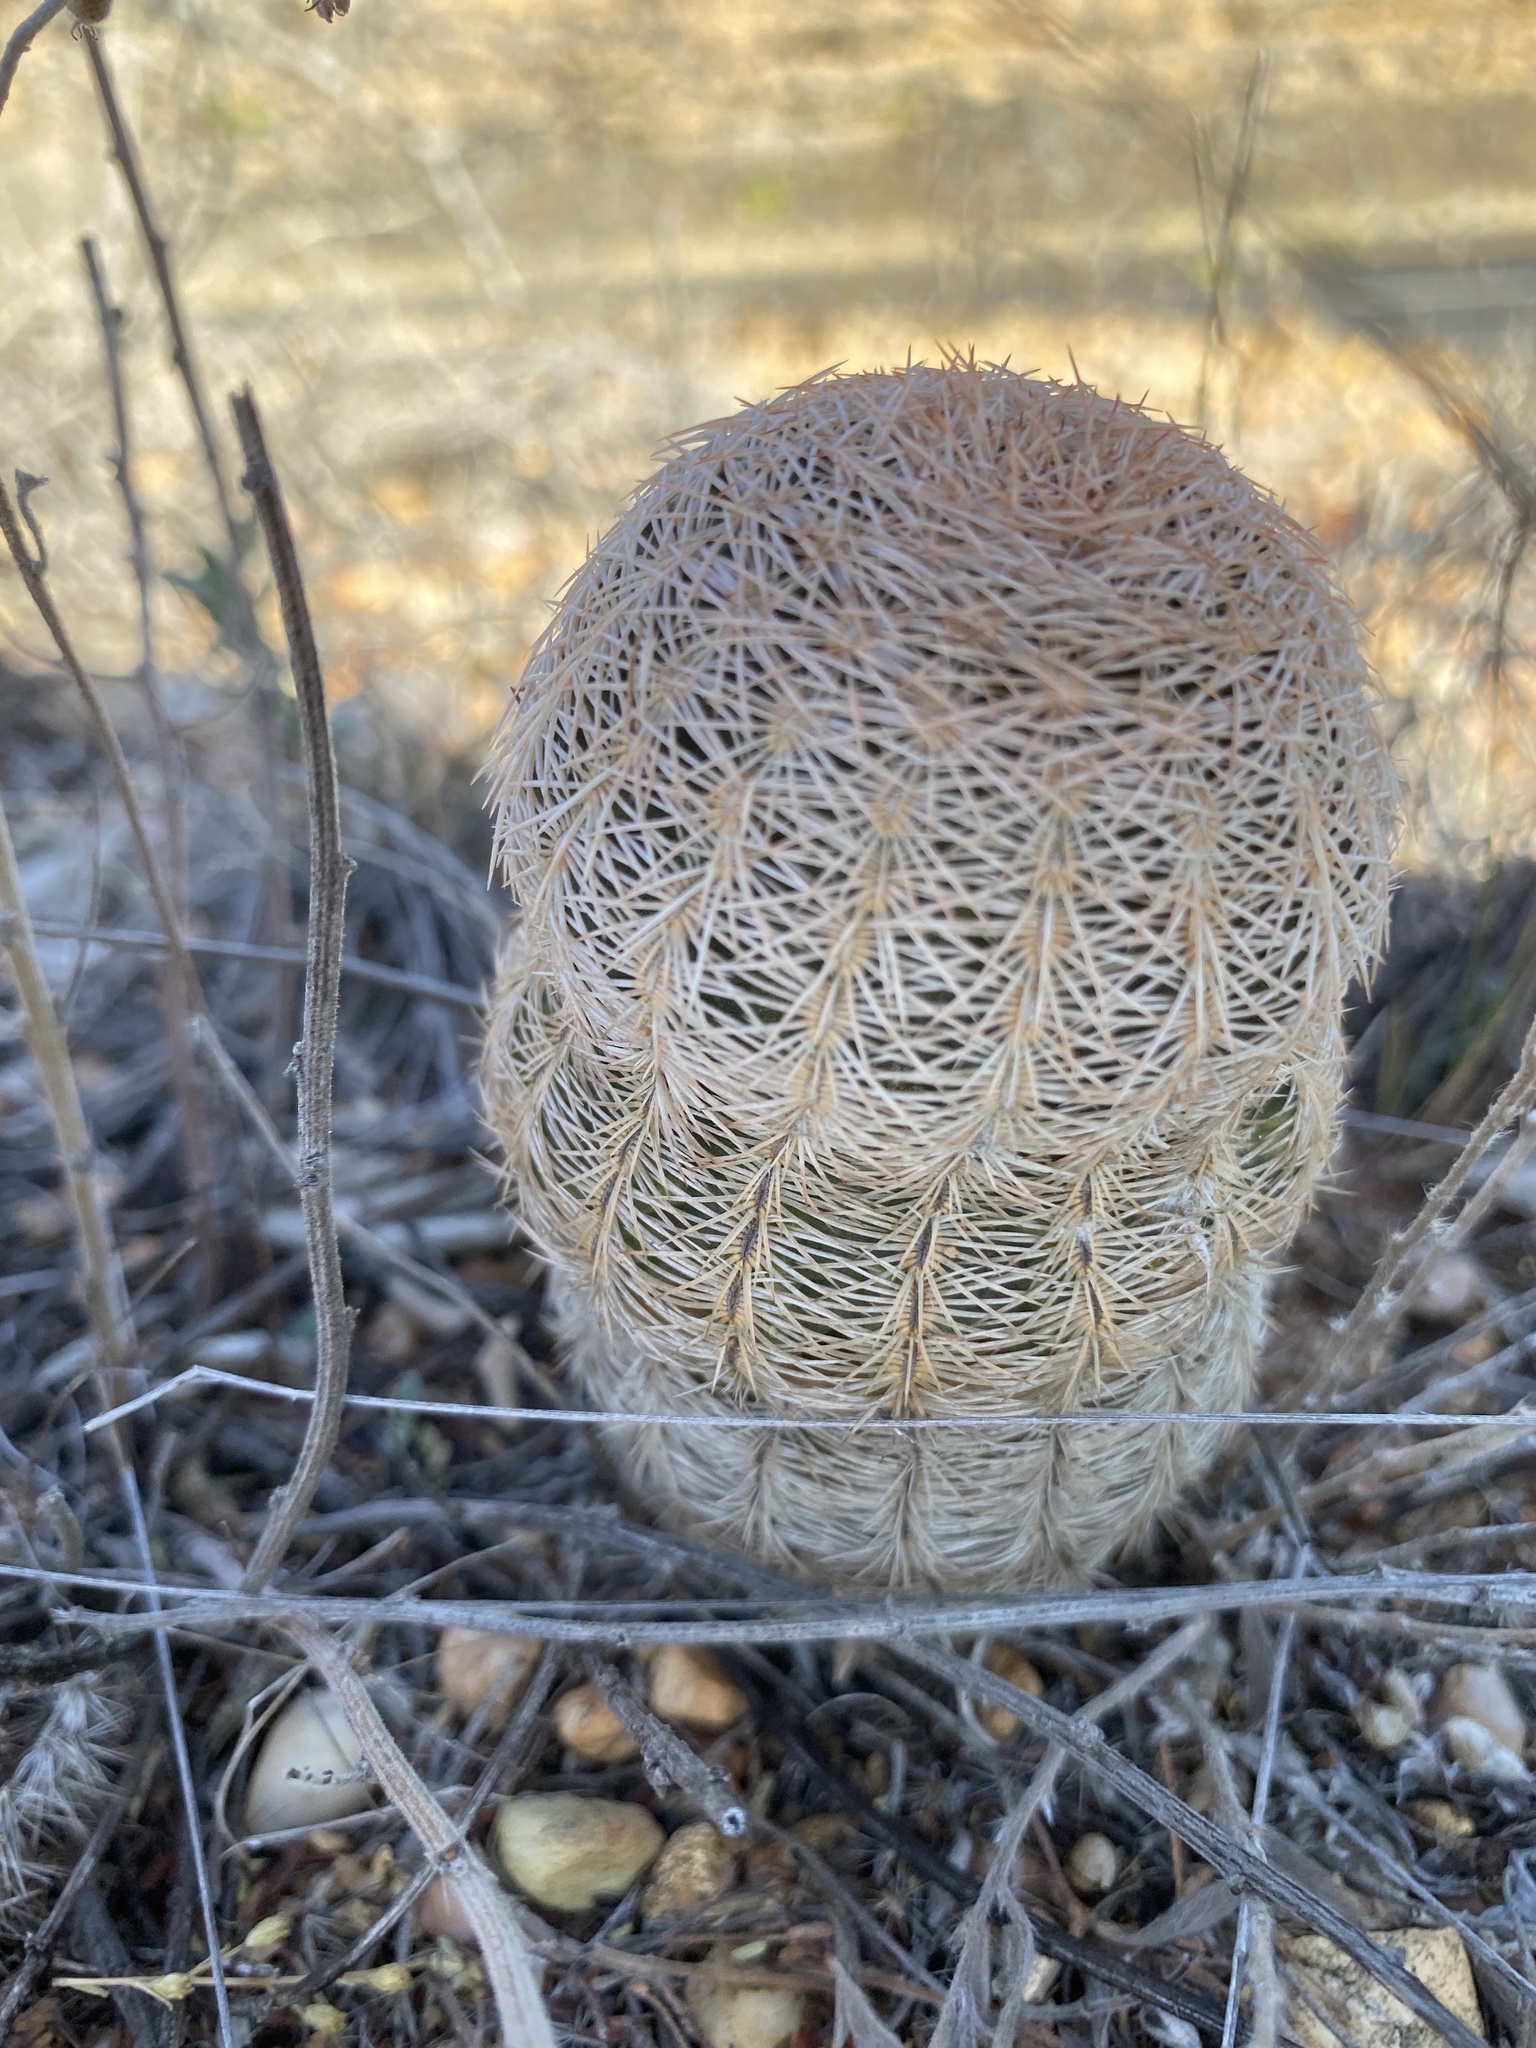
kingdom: Plantae
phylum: Tracheophyta
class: Magnoliopsida
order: Caryophyllales
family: Cactaceae
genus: Echinocereus
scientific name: Echinocereus reichenbachii
